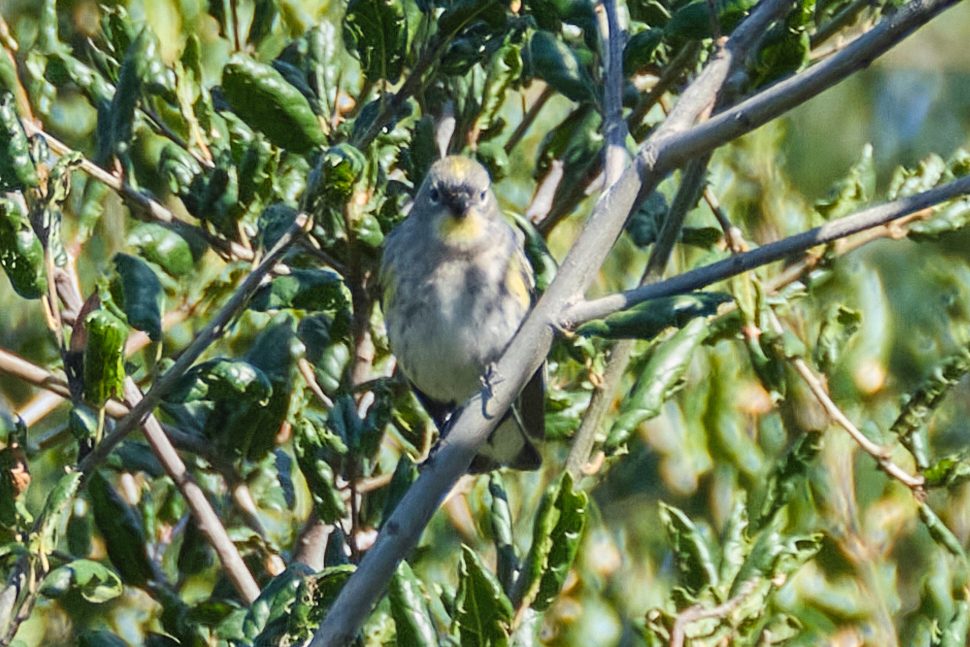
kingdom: Animalia
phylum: Chordata
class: Aves
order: Passeriformes
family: Parulidae
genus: Setophaga
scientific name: Setophaga coronata
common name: Myrtle warbler
